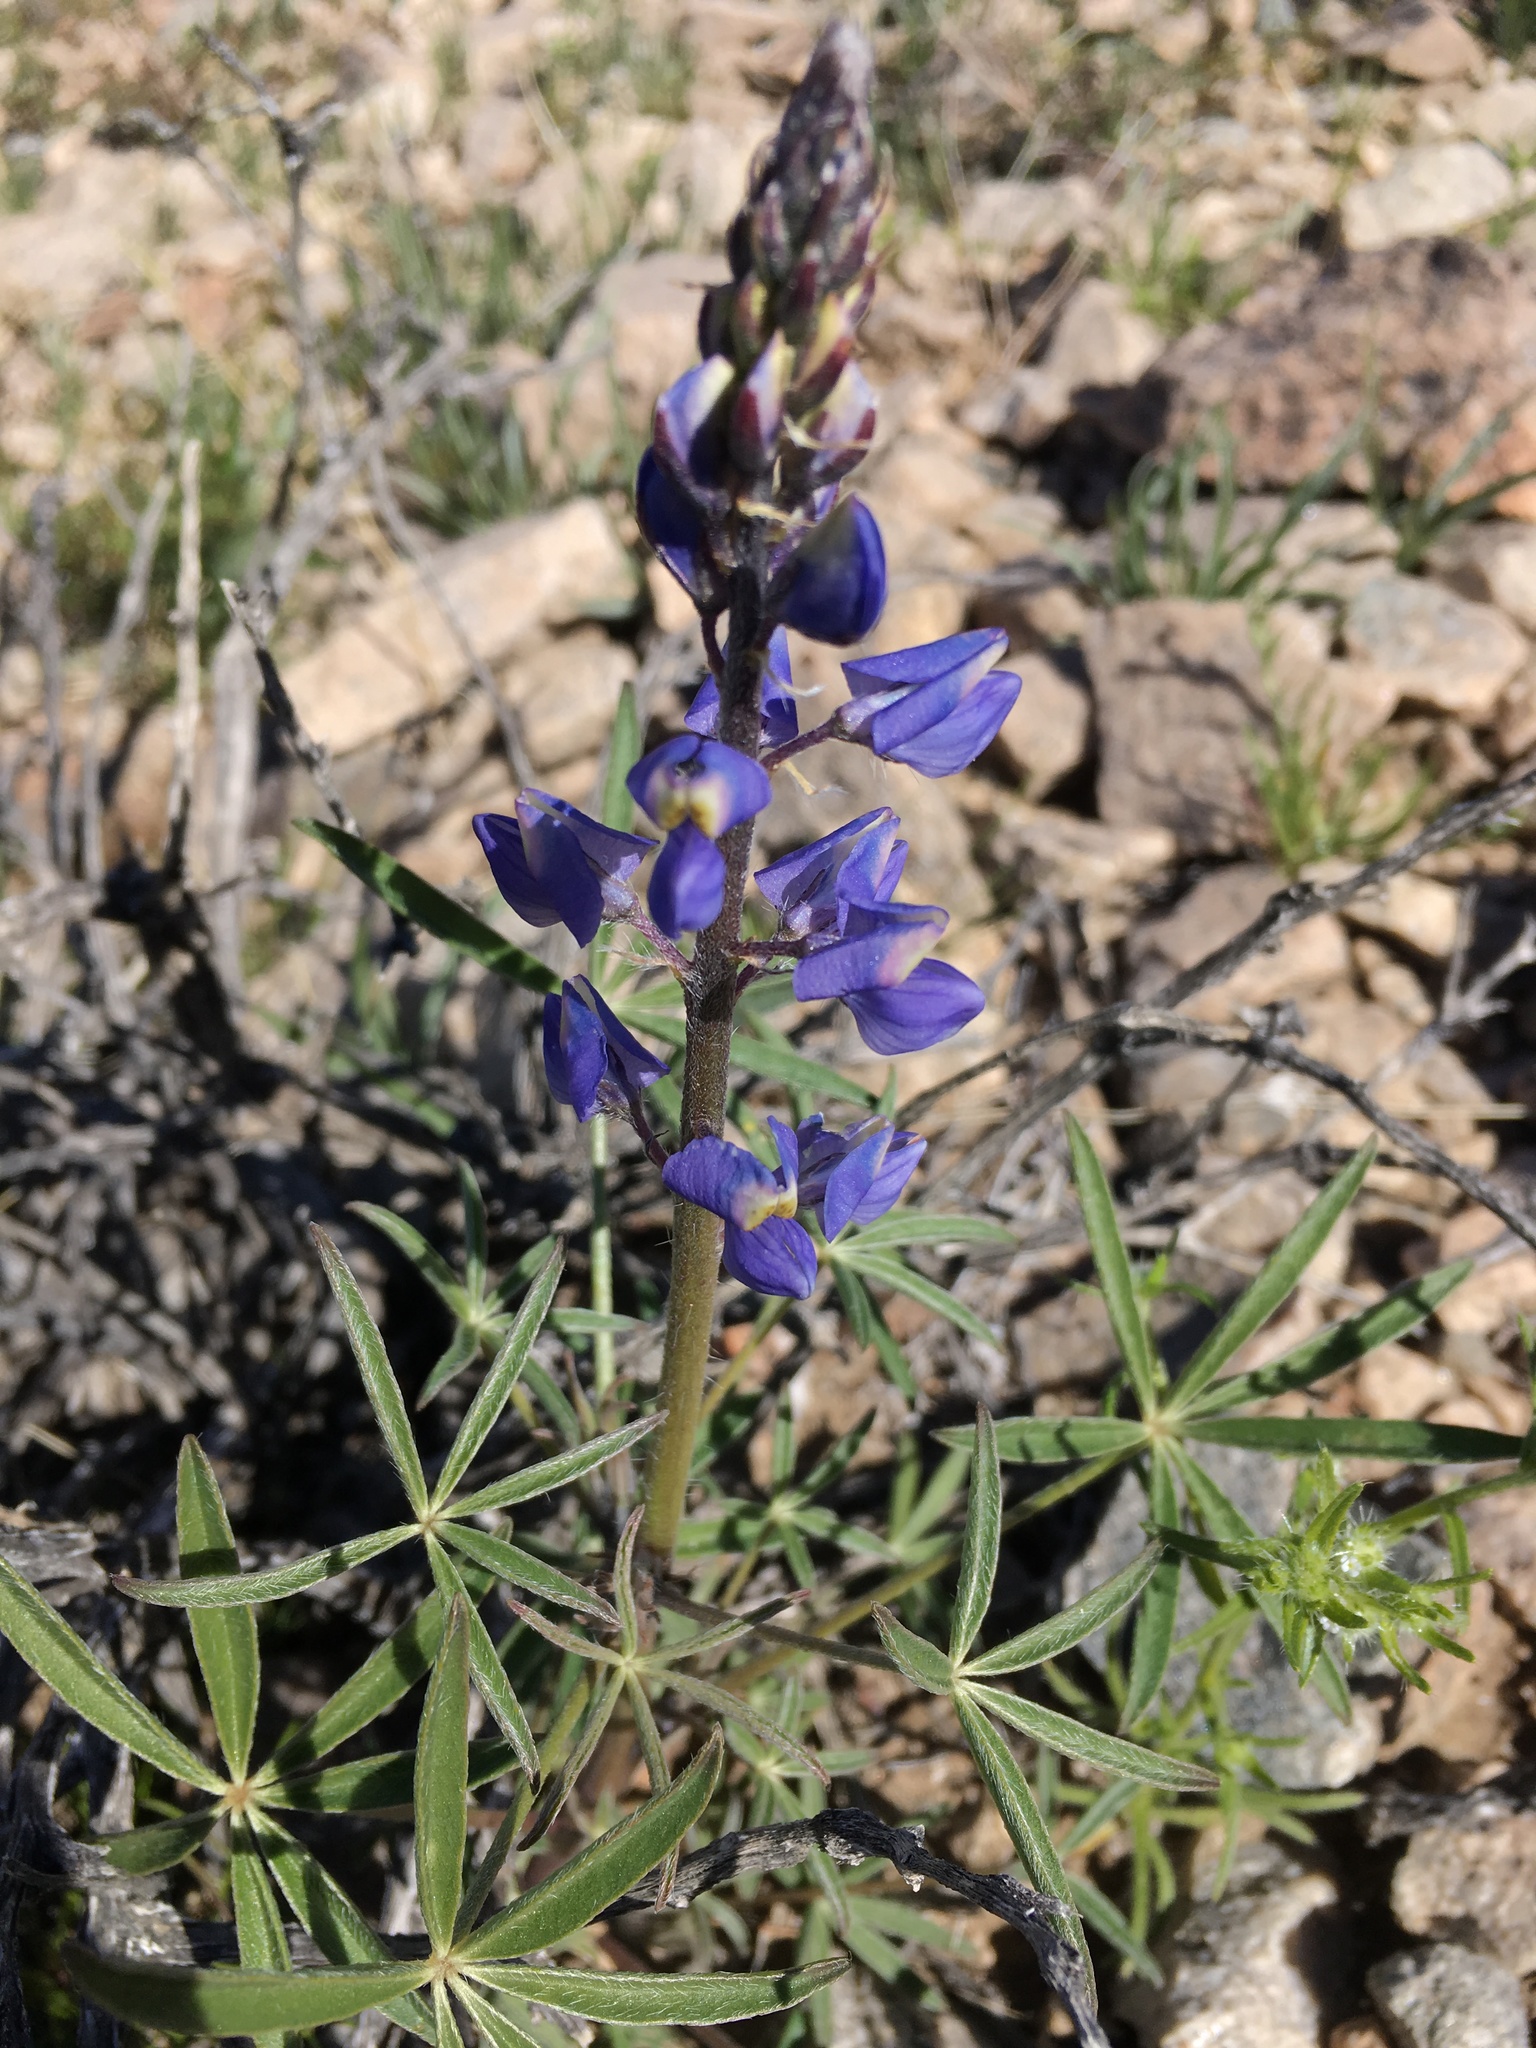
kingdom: Plantae
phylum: Tracheophyta
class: Magnoliopsida
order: Fabales
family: Fabaceae
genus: Lupinus
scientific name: Lupinus sparsiflorus
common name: Coulter's lupine
